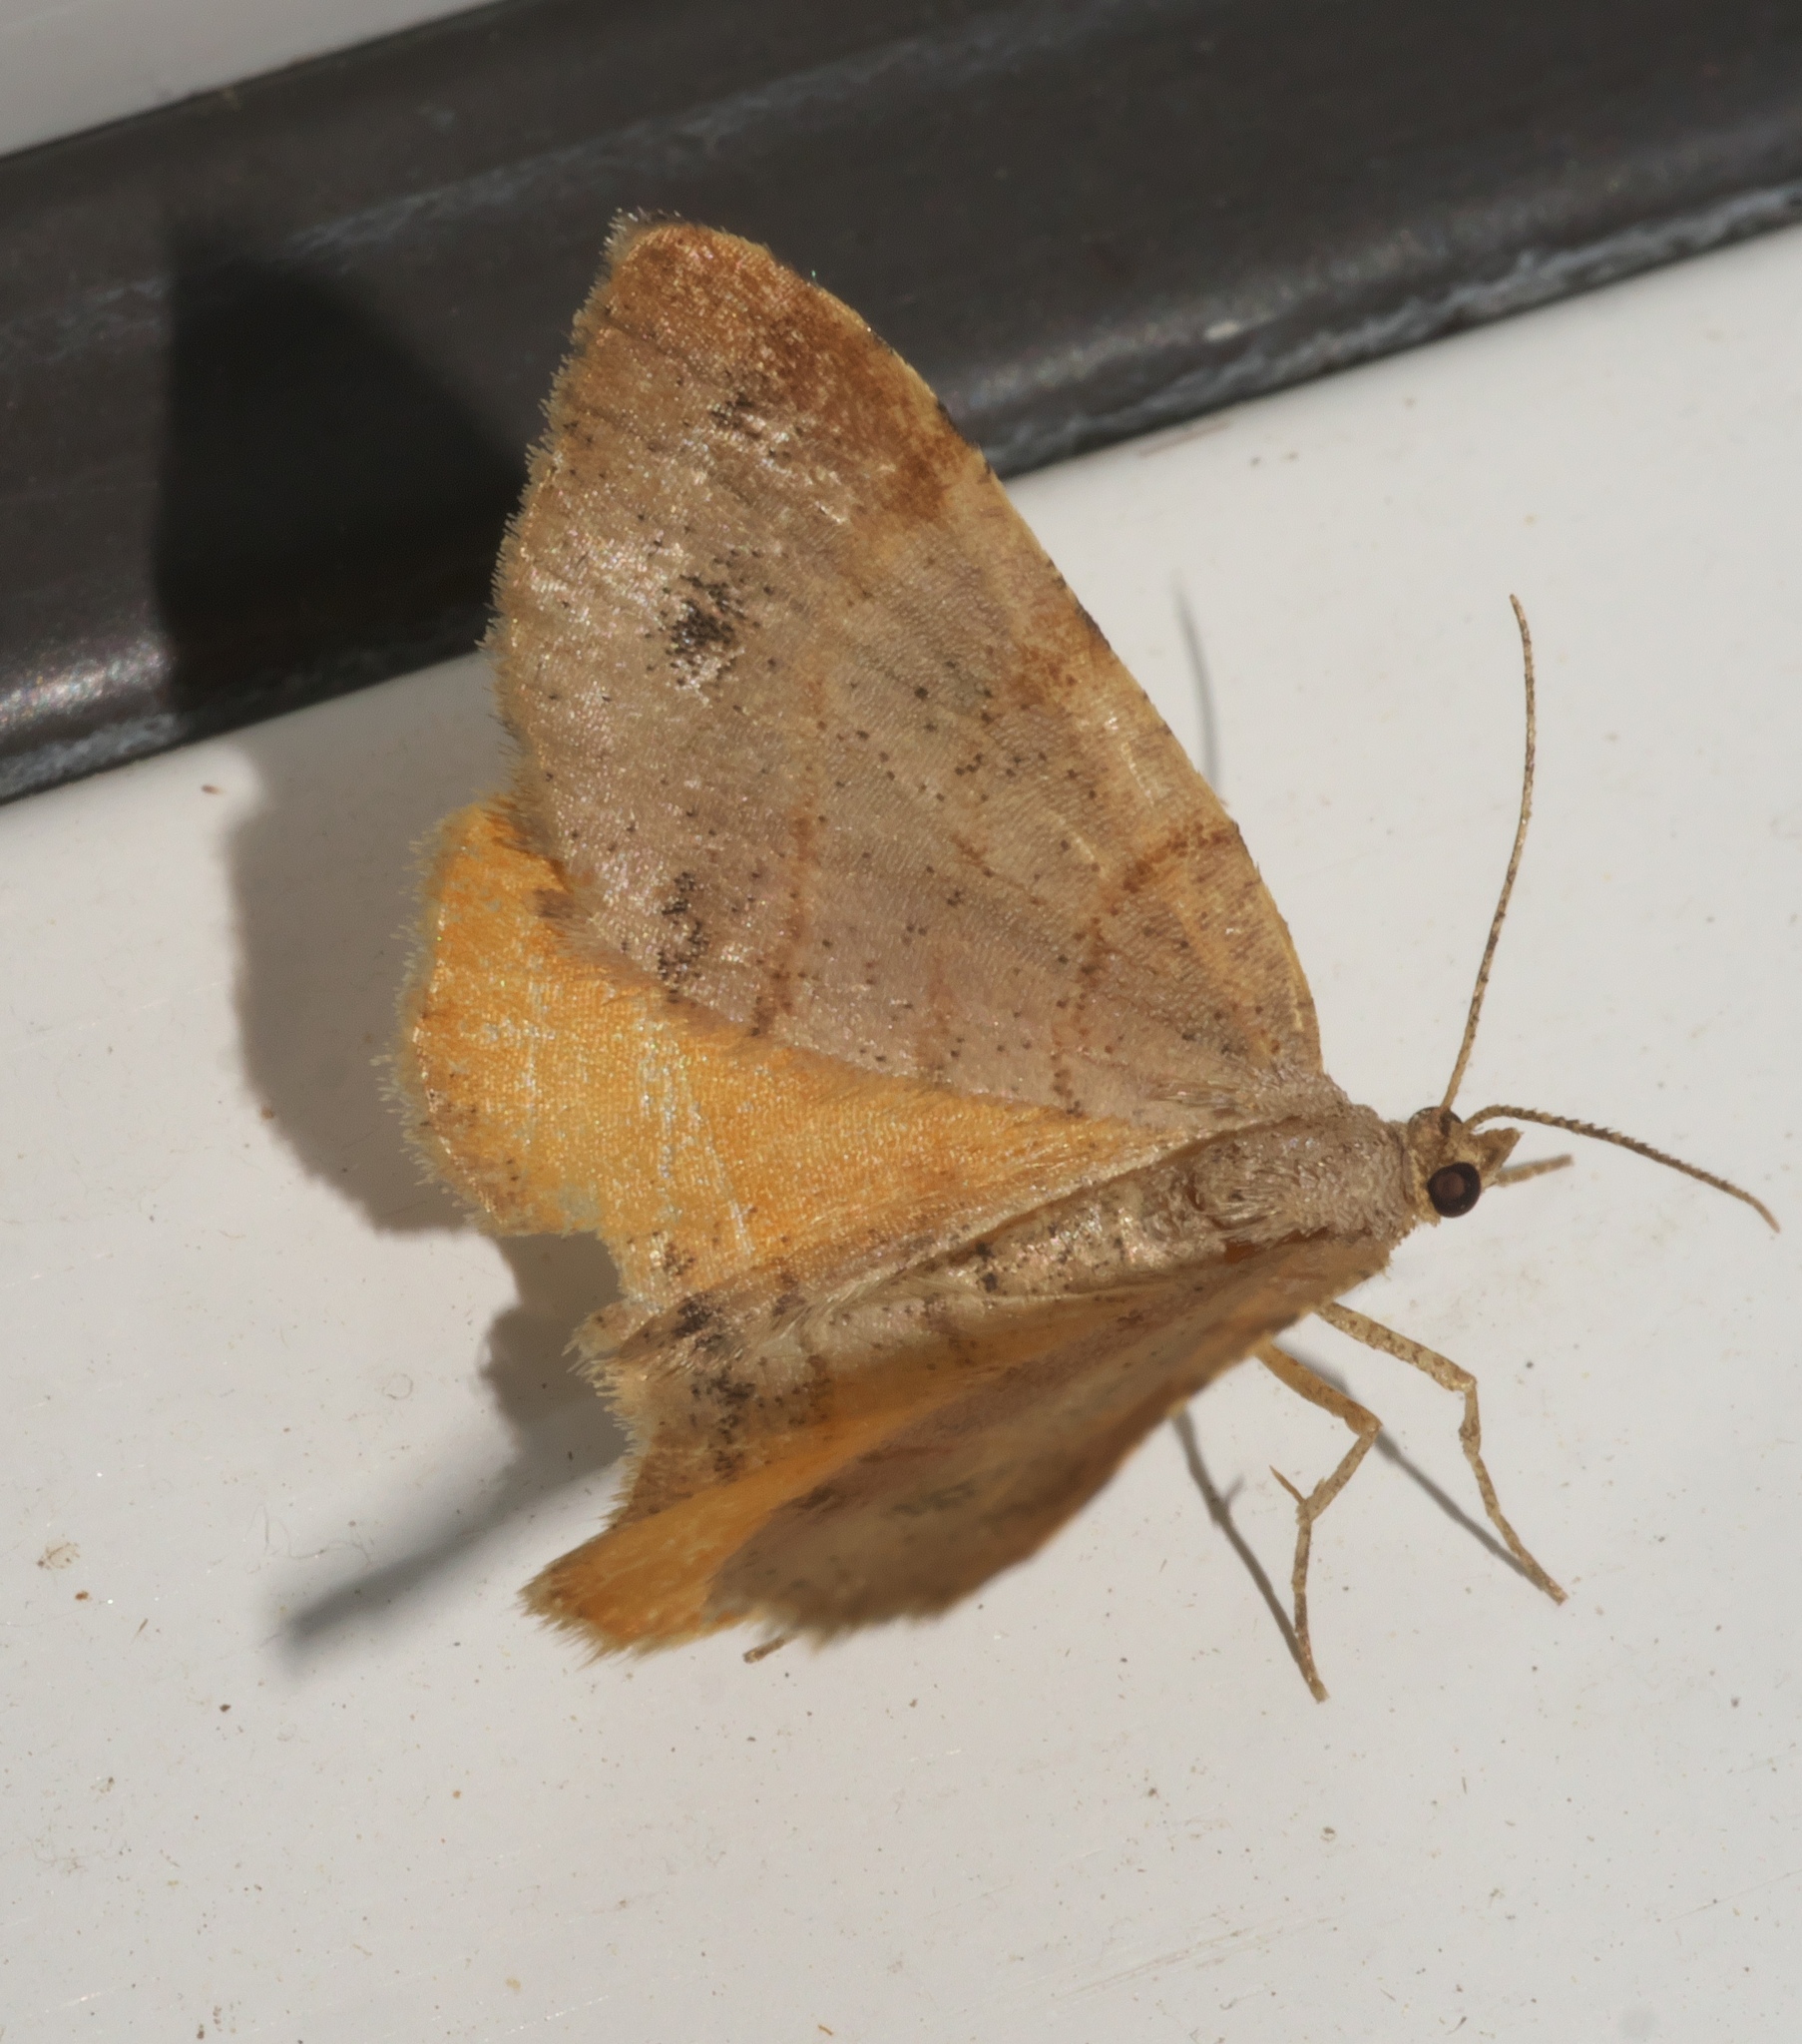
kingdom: Animalia
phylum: Arthropoda
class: Insecta
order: Lepidoptera
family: Geometridae
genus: Mellilla
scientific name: Mellilla xanthometata
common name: Orange wing moth
